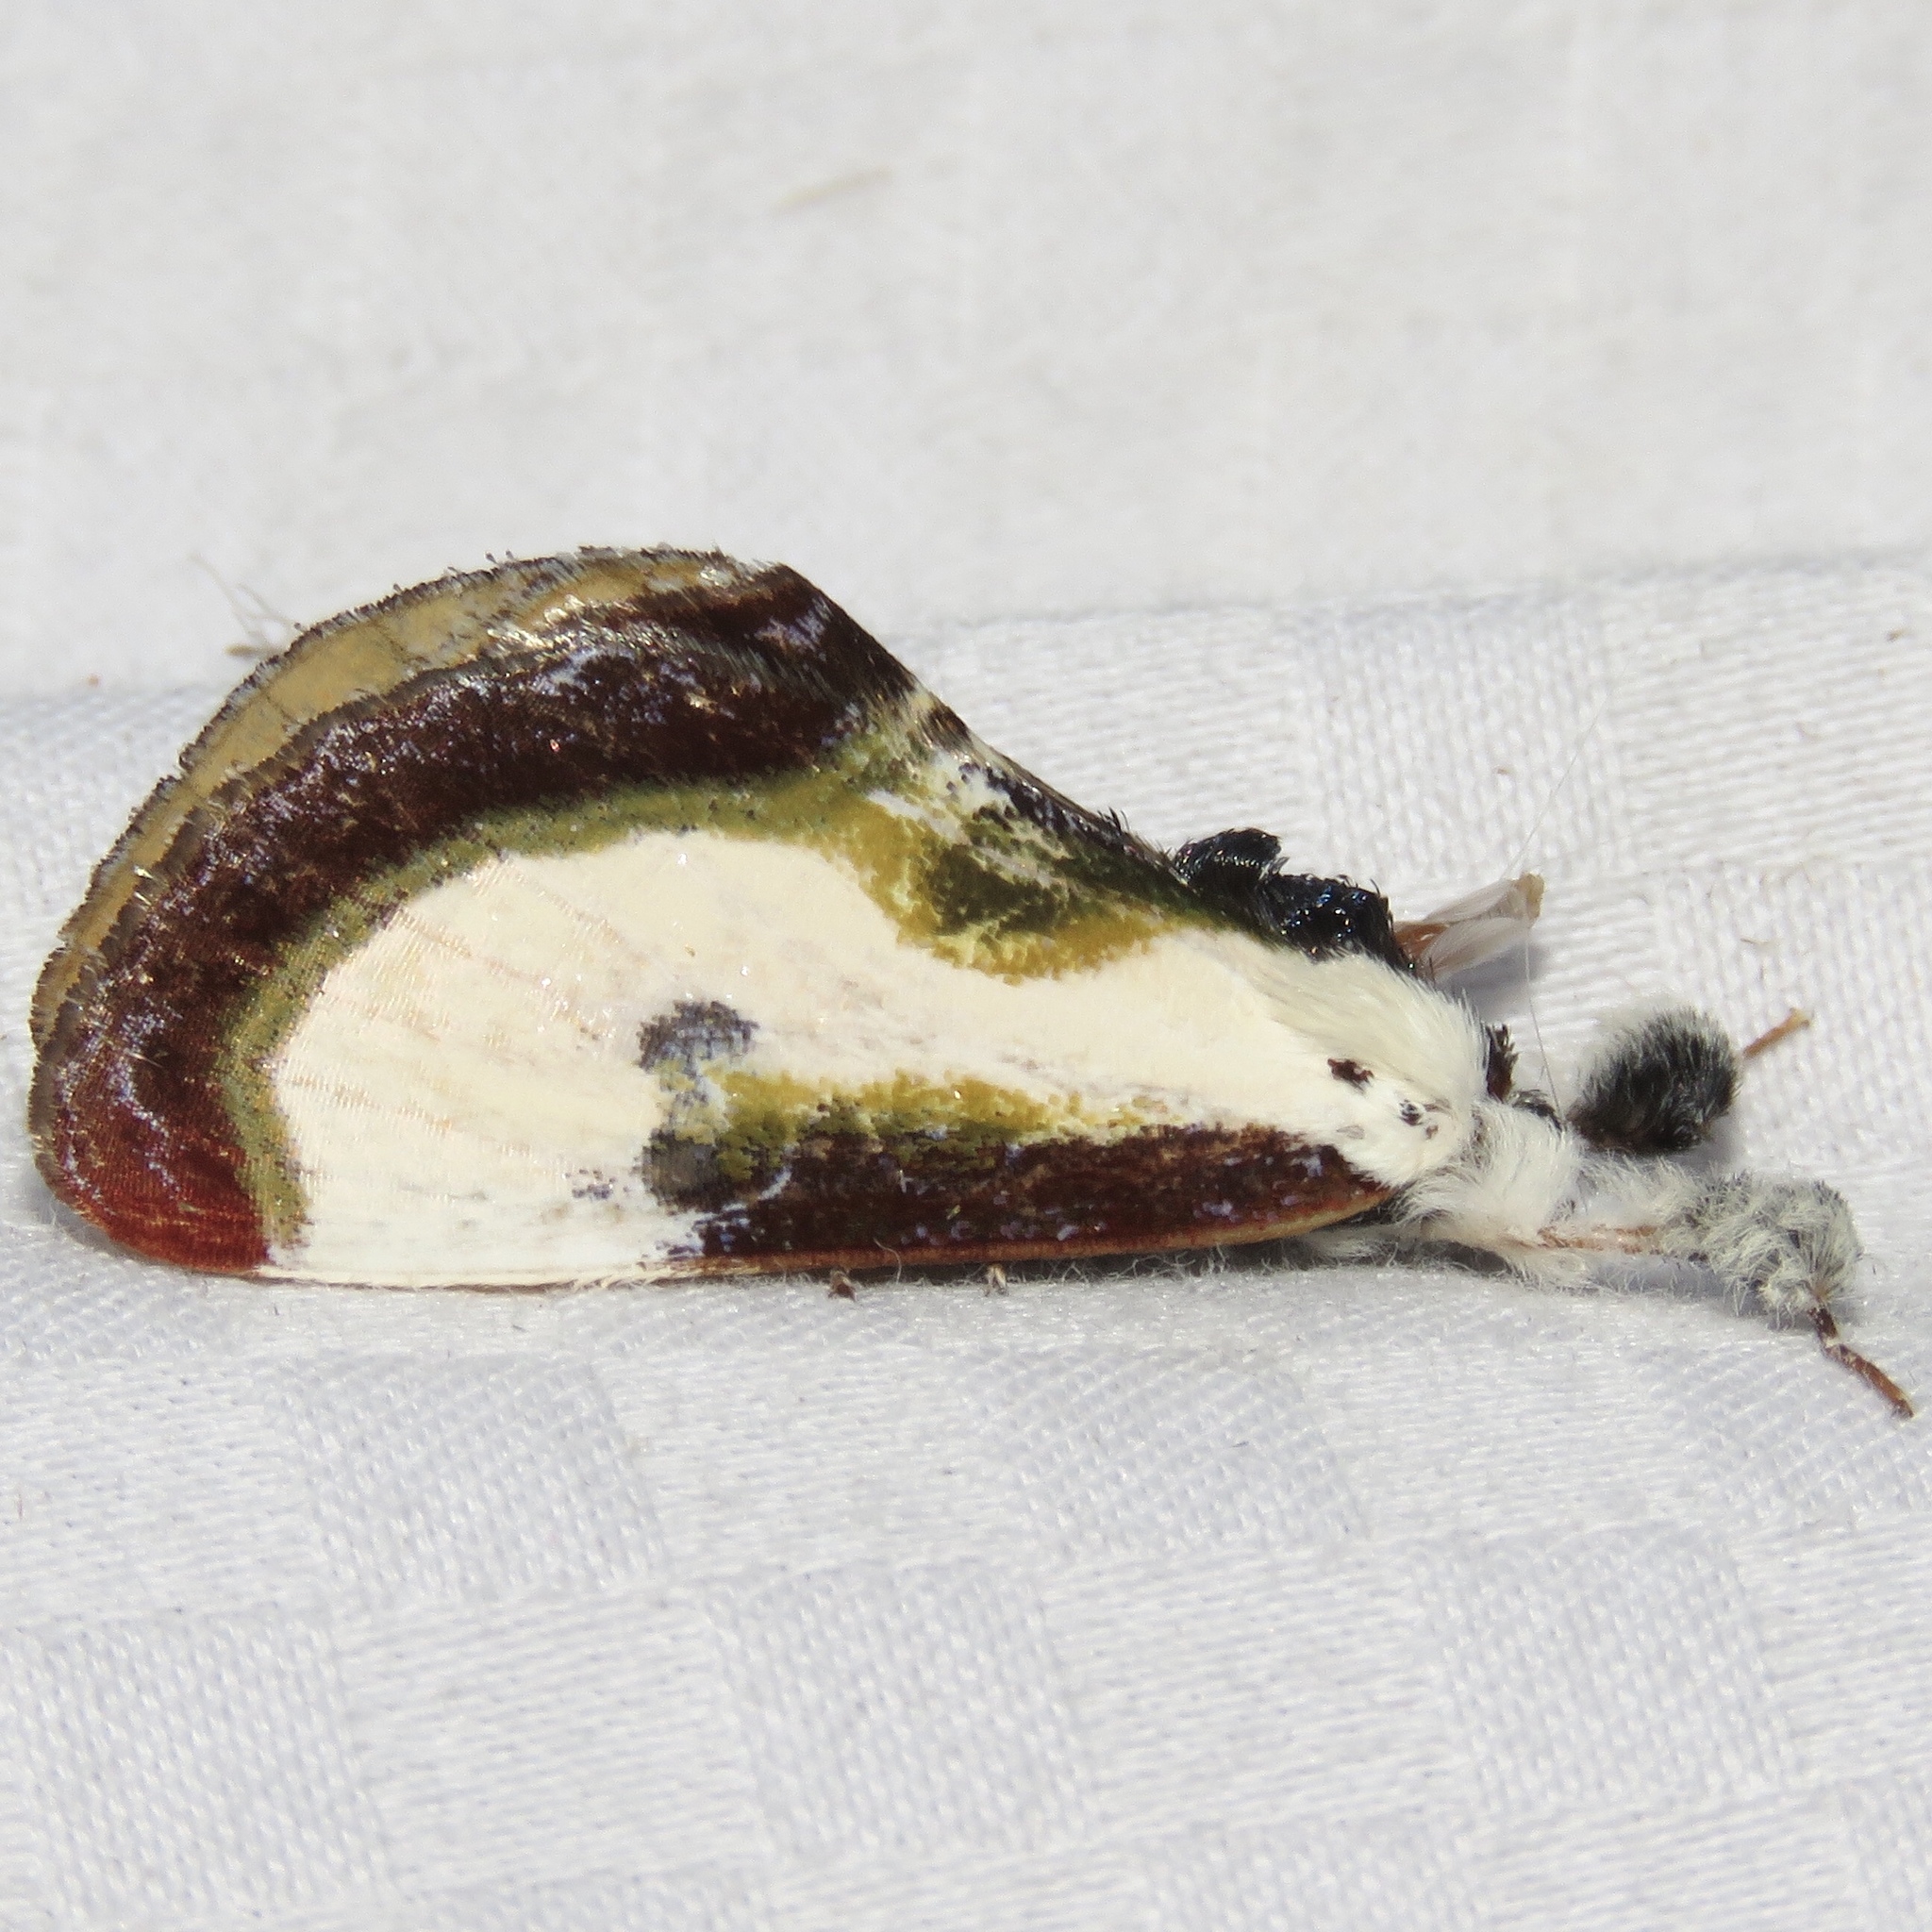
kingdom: Animalia
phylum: Arthropoda
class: Insecta
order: Lepidoptera
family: Noctuidae
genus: Eudryas
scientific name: Eudryas grata
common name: Beautiful wood-nymph
